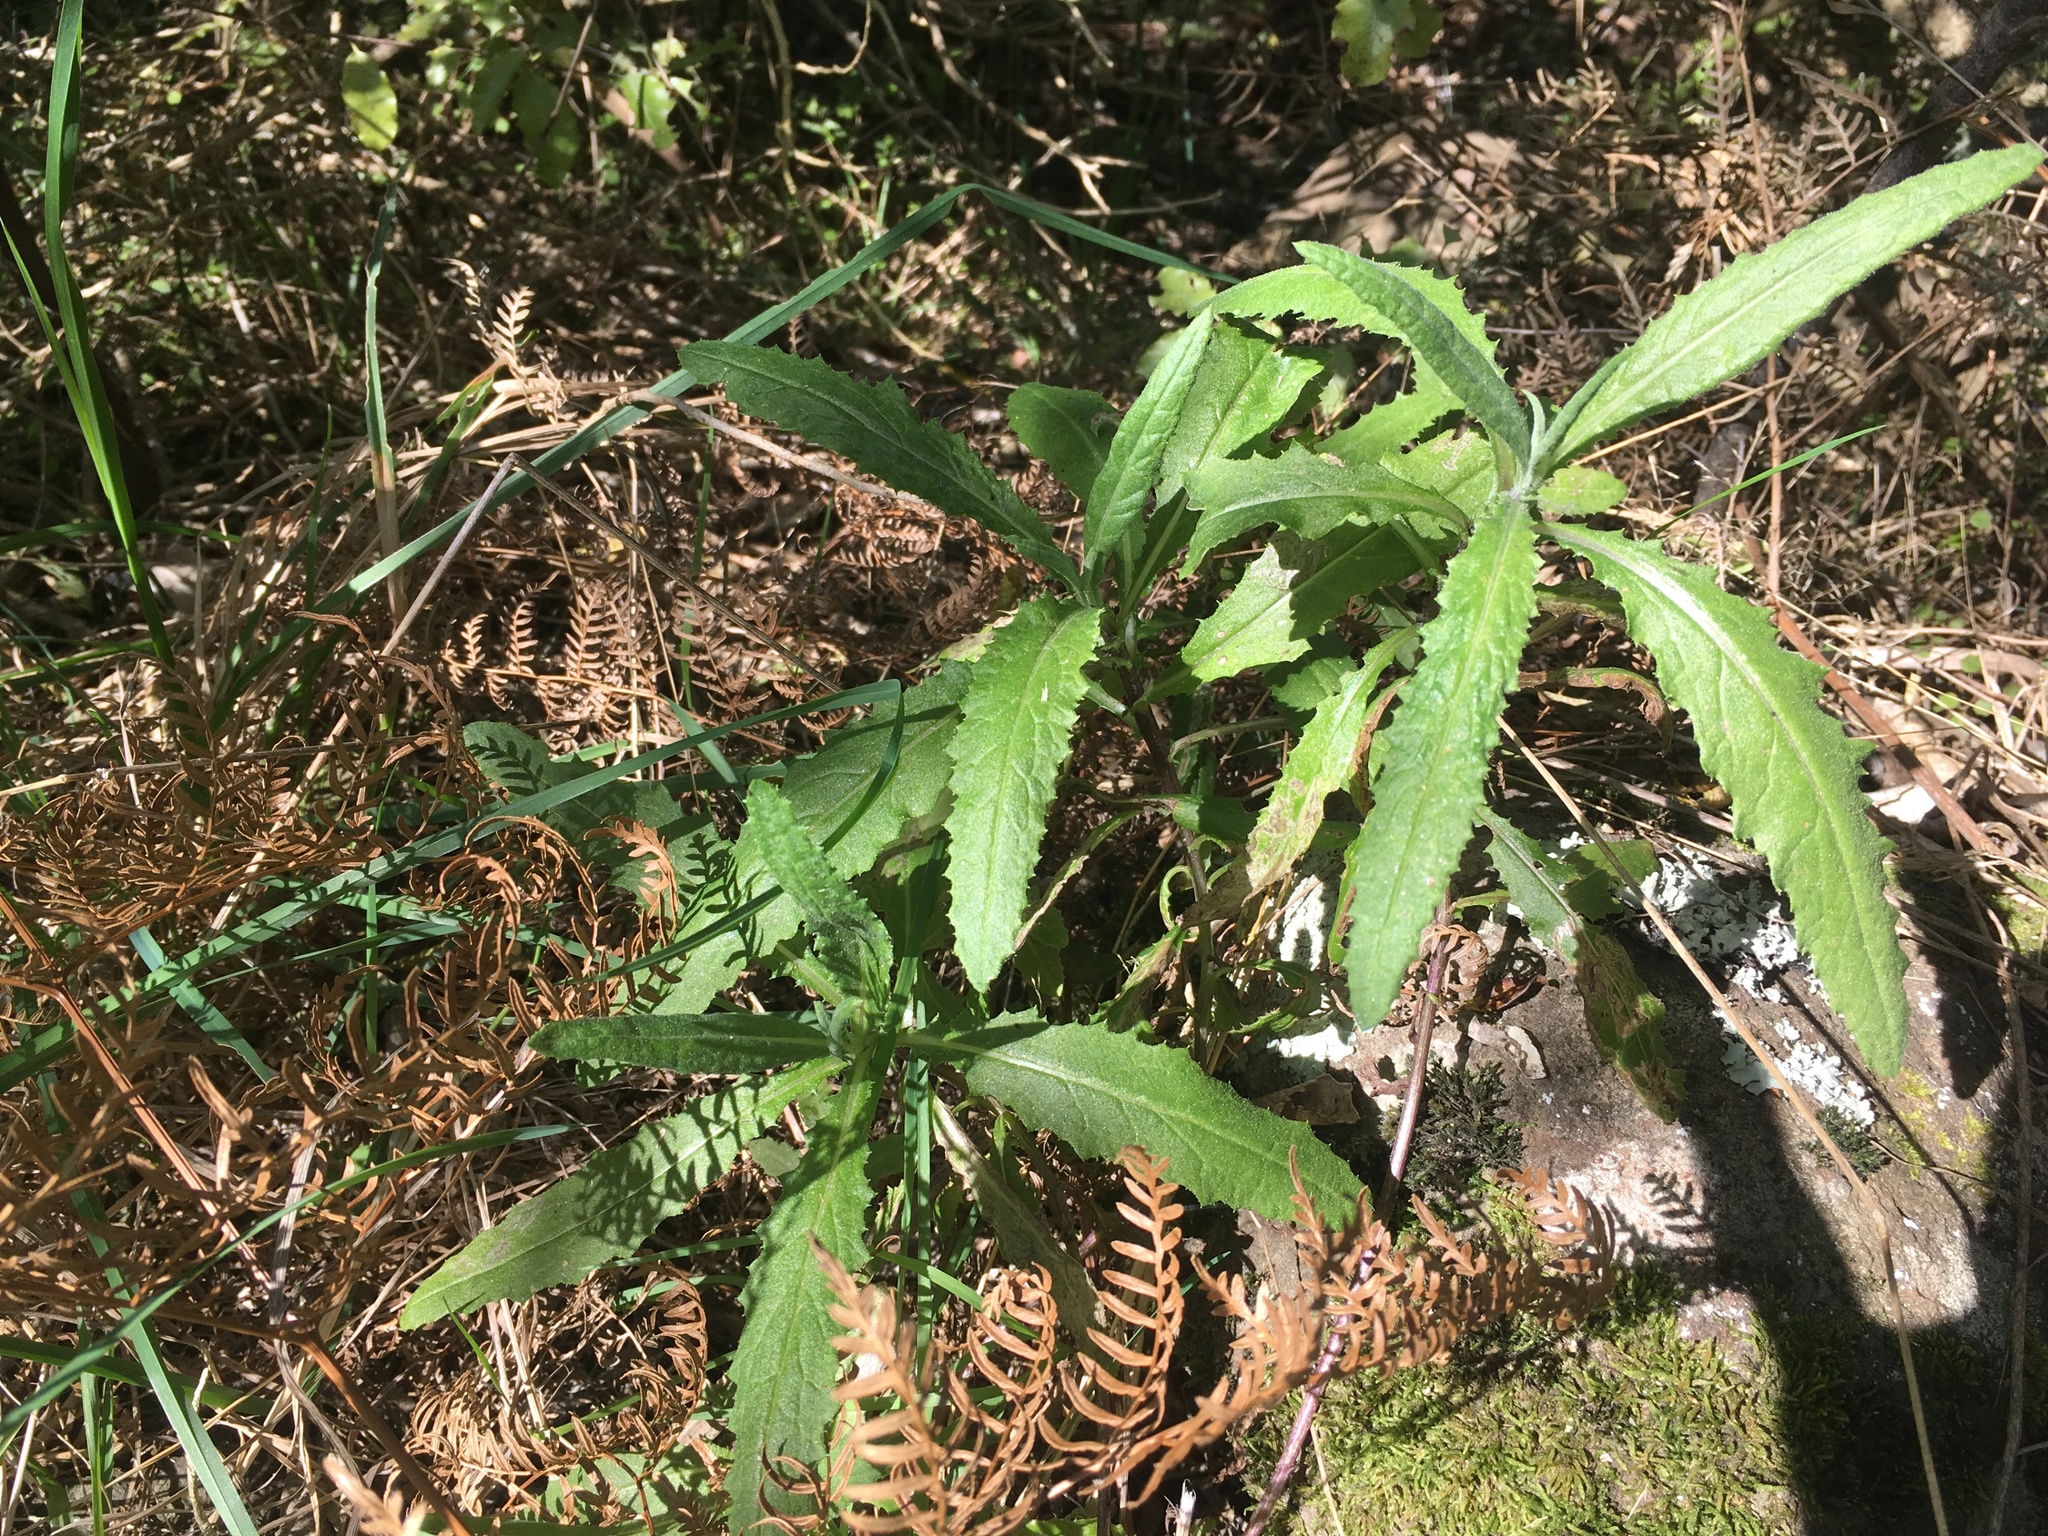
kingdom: Plantae
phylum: Tracheophyta
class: Magnoliopsida
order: Asterales
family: Asteraceae
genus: Senecio
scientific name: Senecio minimus
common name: Toothed fireweed
